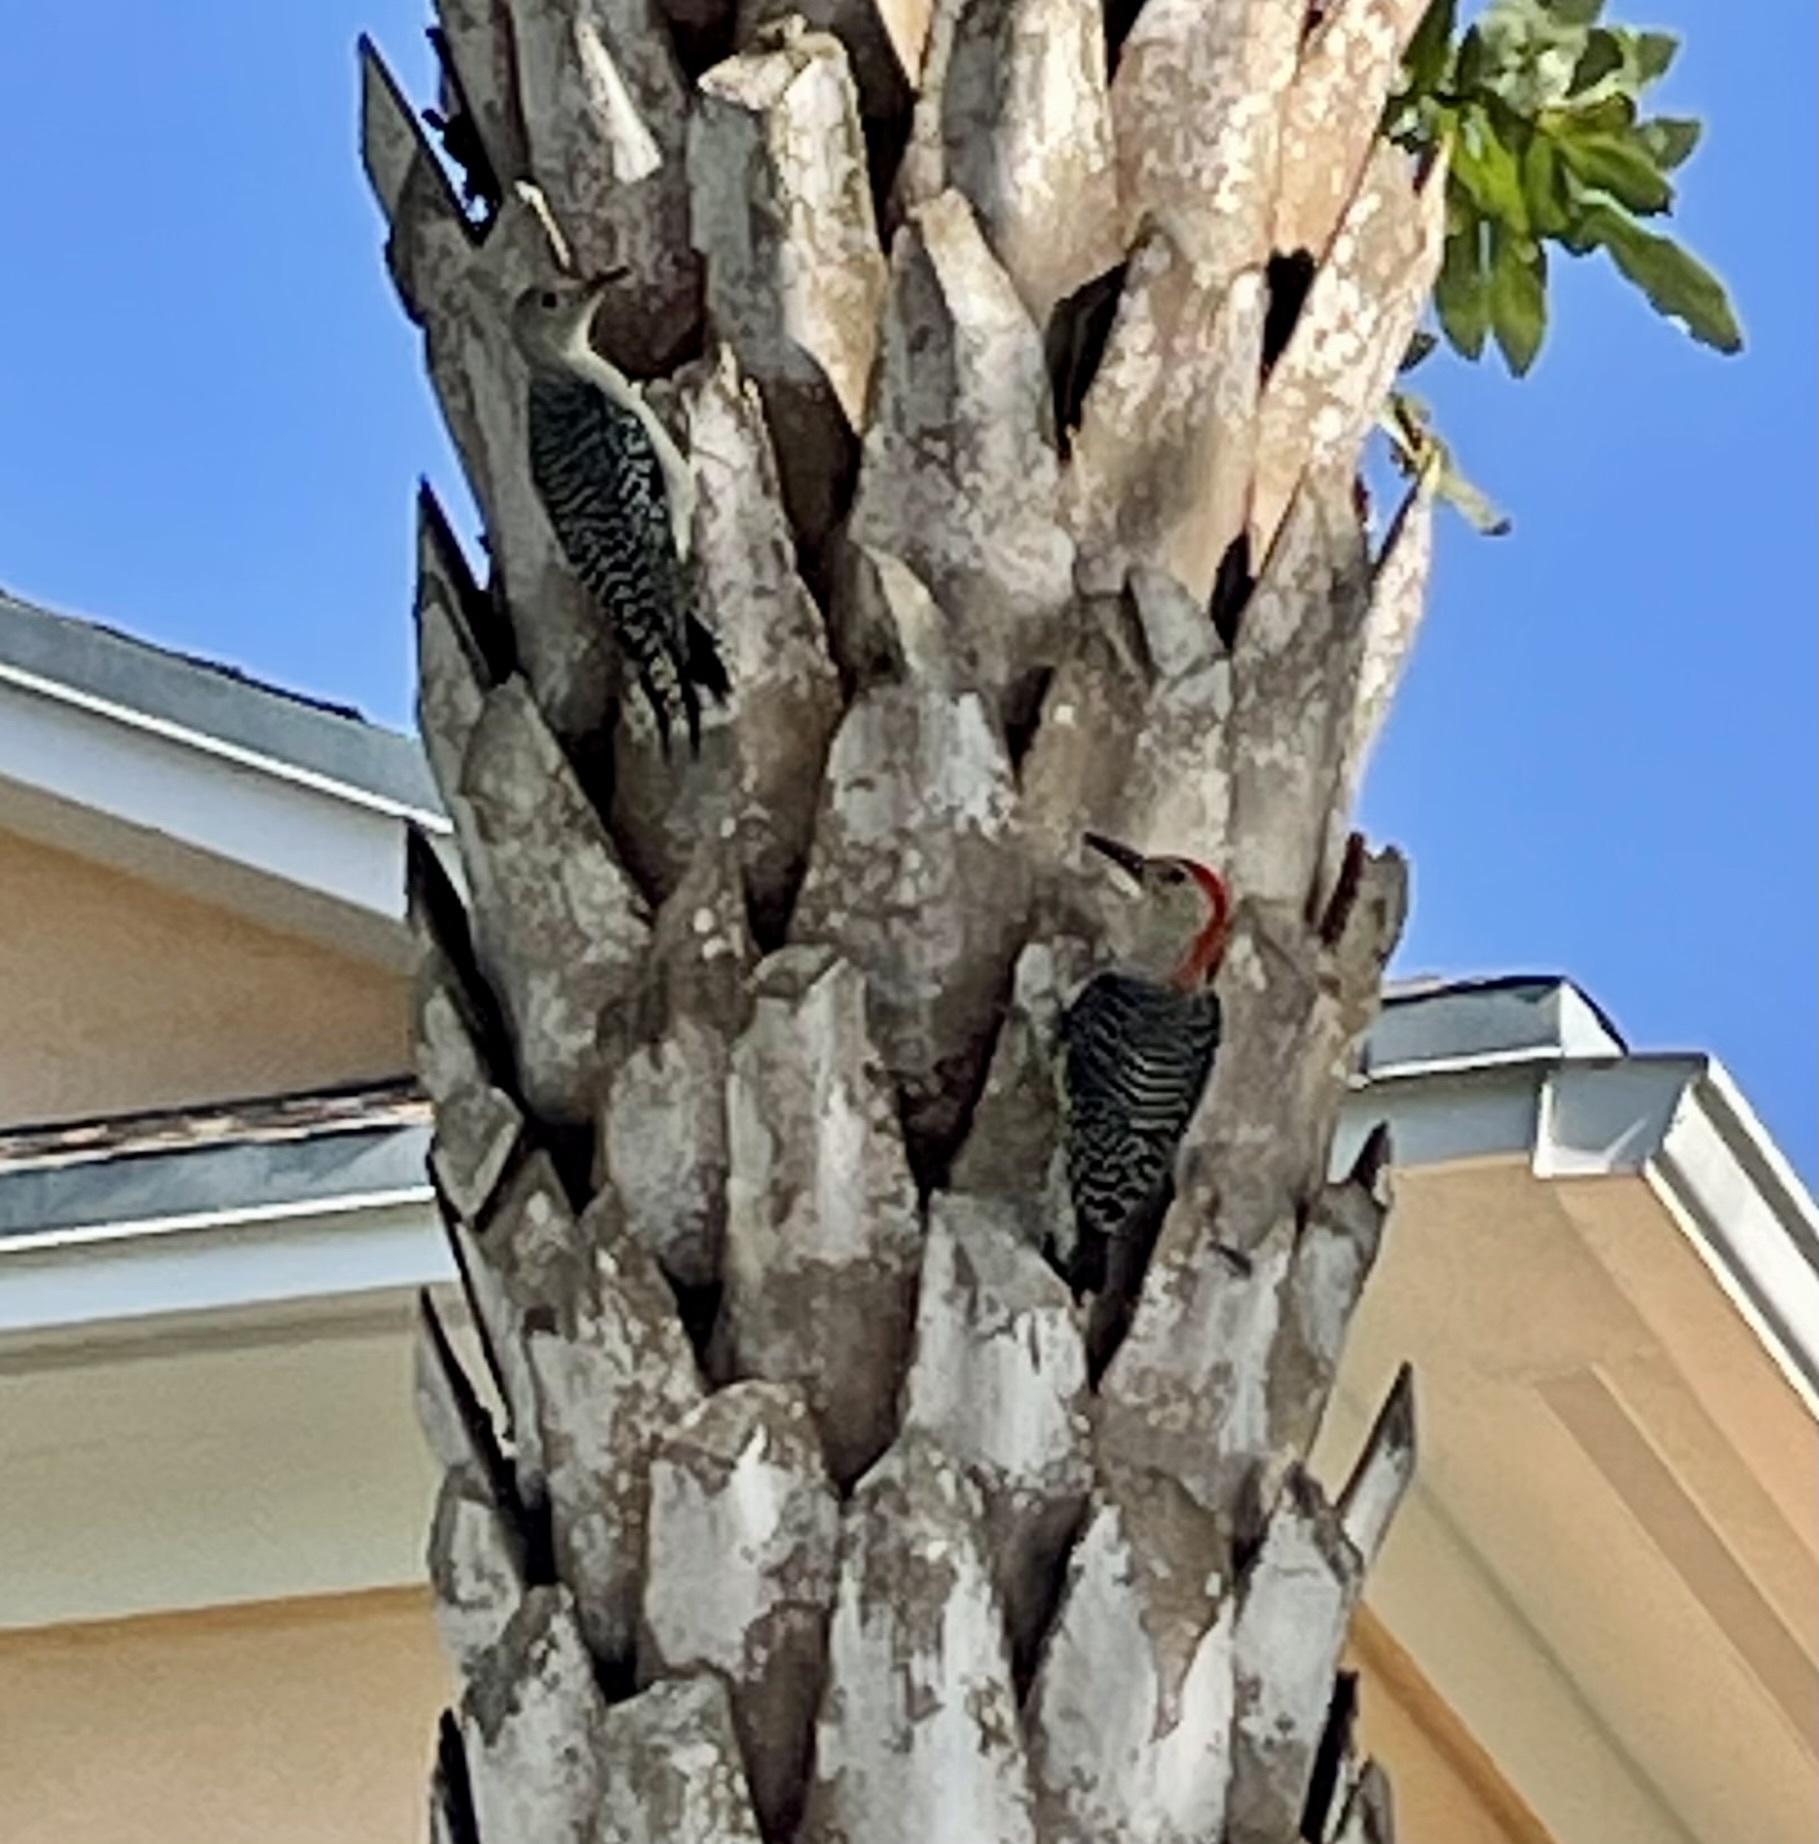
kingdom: Animalia
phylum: Chordata
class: Aves
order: Piciformes
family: Picidae
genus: Melanerpes
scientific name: Melanerpes carolinus
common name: Red-bellied woodpecker
